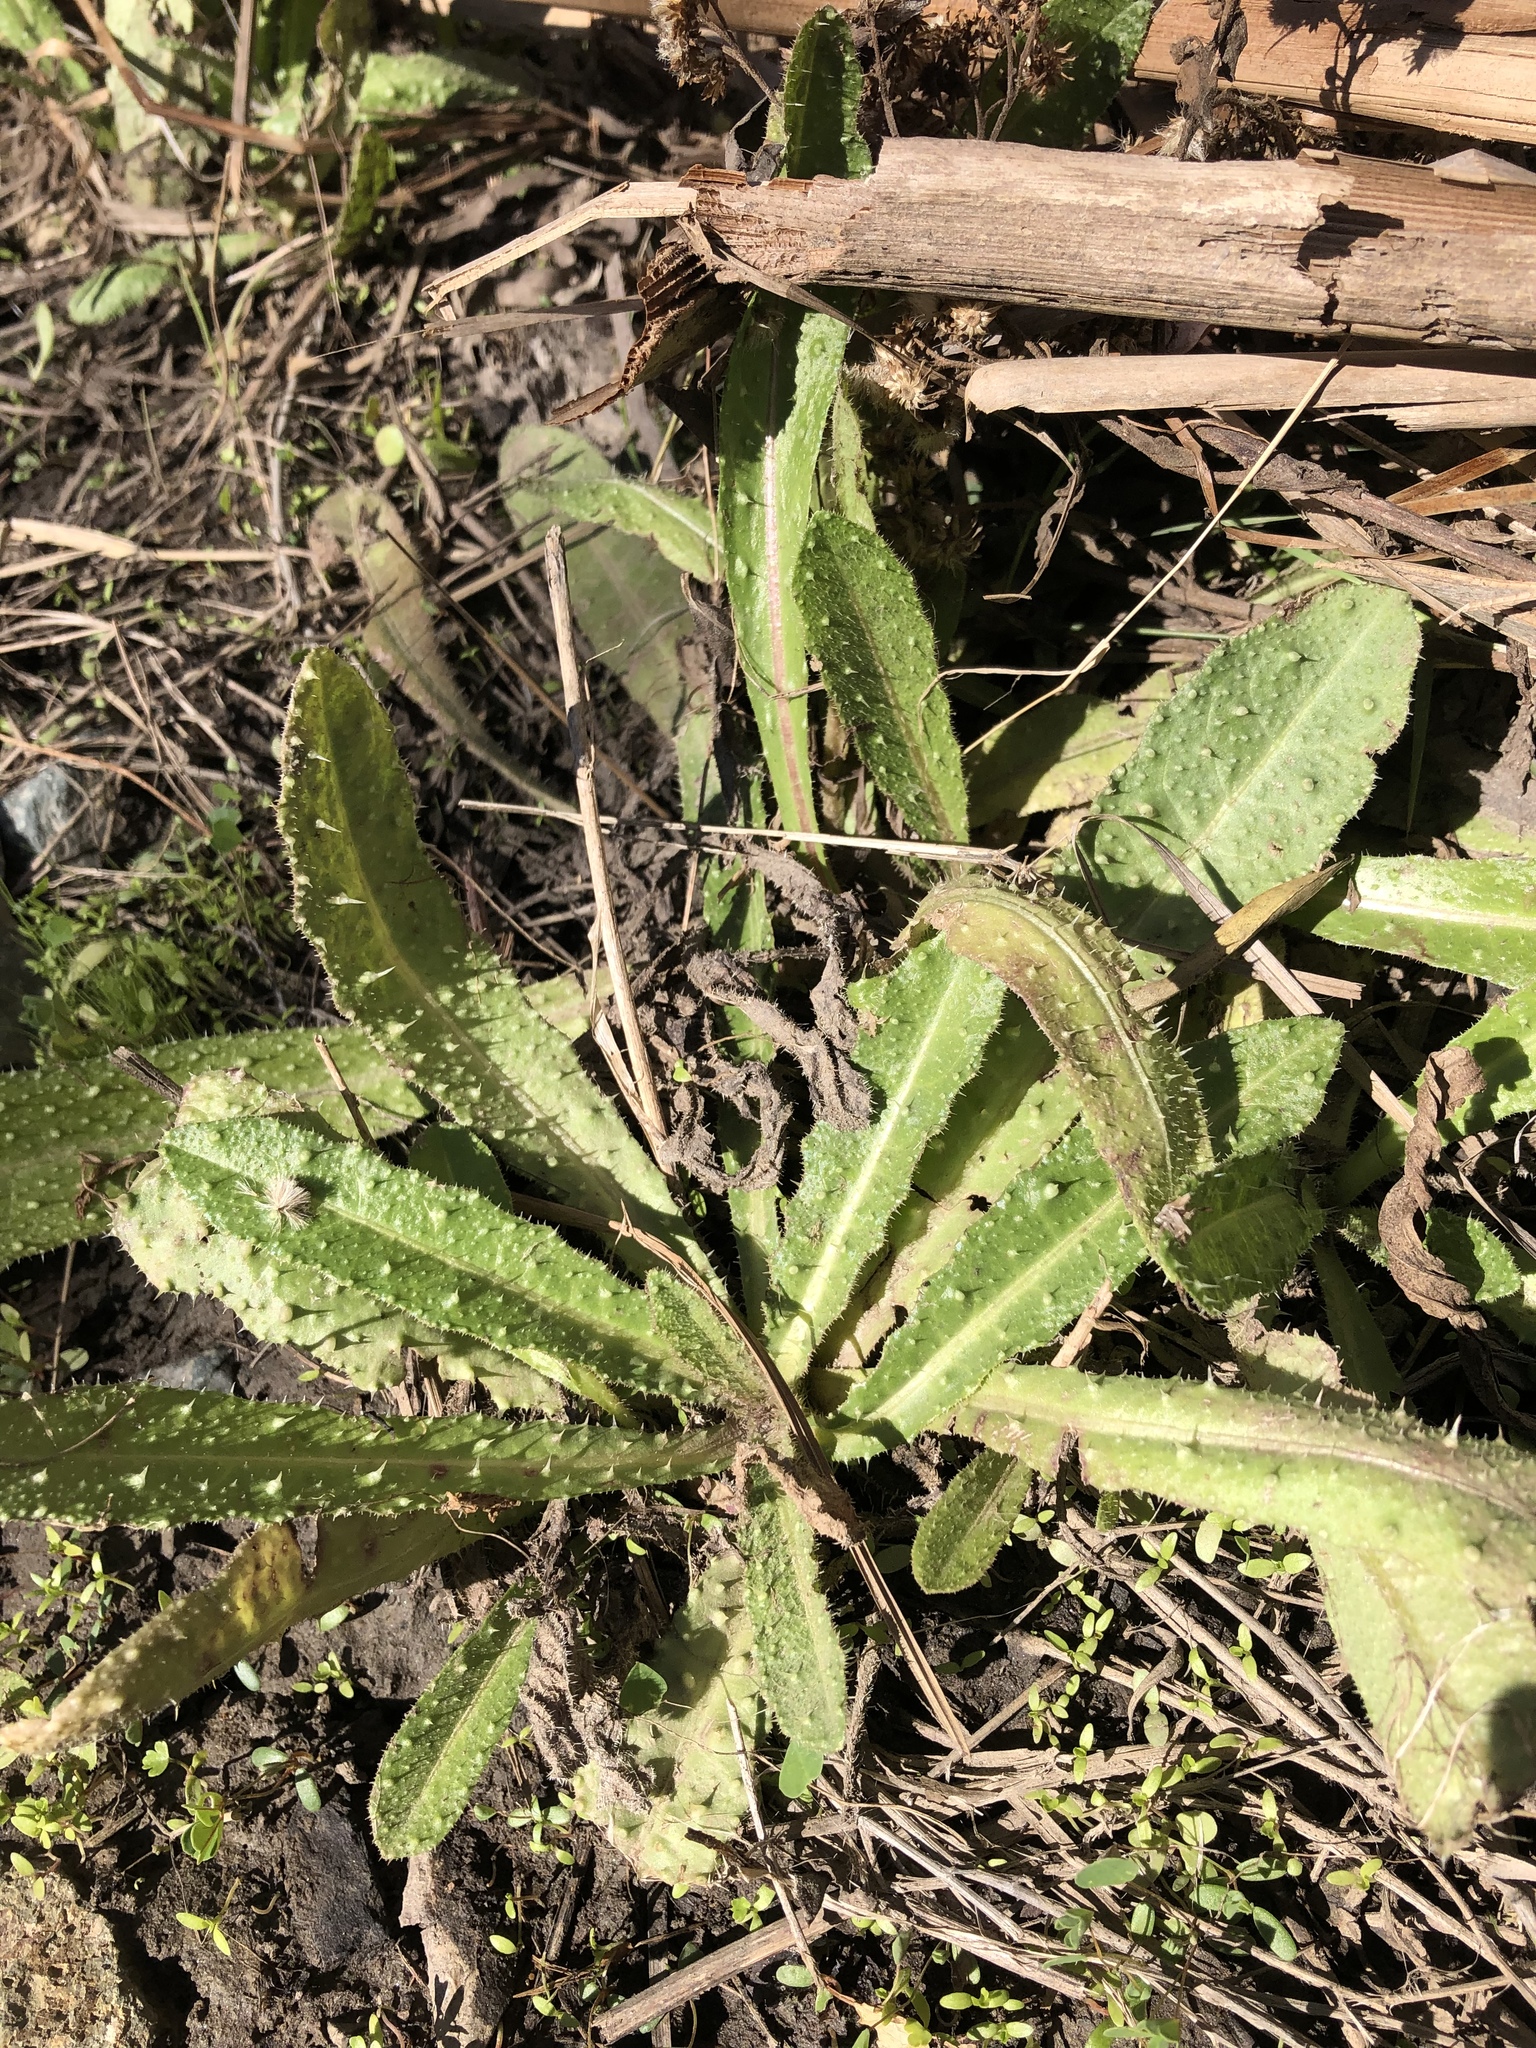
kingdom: Plantae
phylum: Tracheophyta
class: Magnoliopsida
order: Asterales
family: Asteraceae
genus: Helminthotheca
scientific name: Helminthotheca echioides
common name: Ox-tongue
